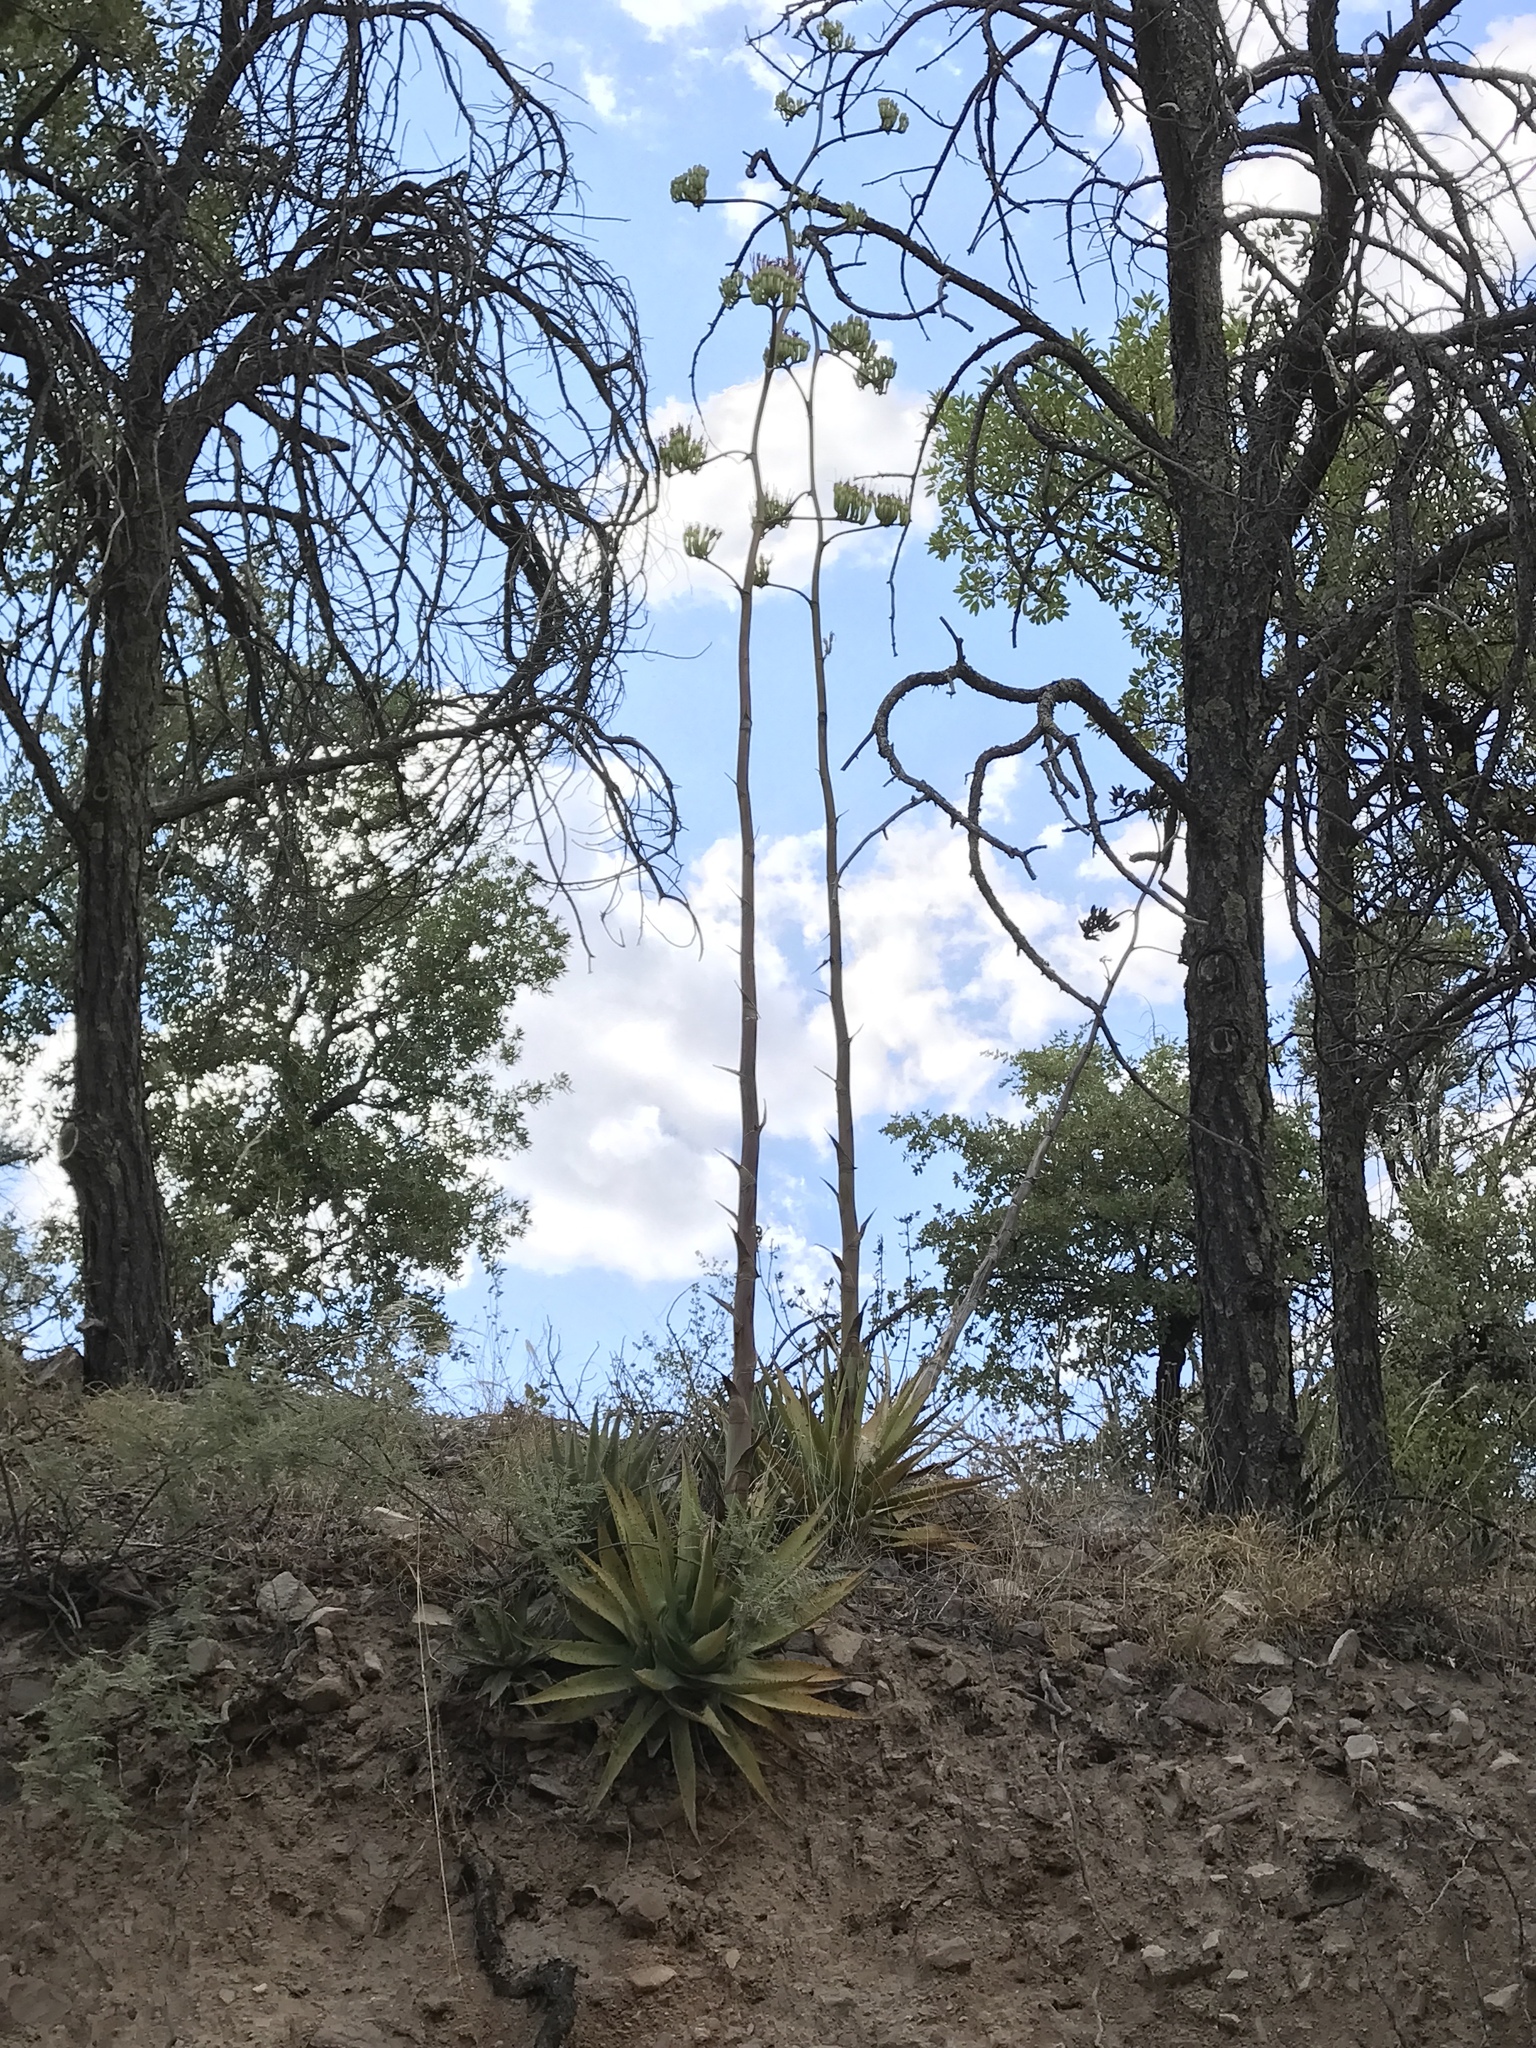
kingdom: Plantae
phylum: Tracheophyta
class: Liliopsida
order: Asparagales
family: Asparagaceae
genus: Agave
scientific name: Agave palmeri
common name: Palmer agave
